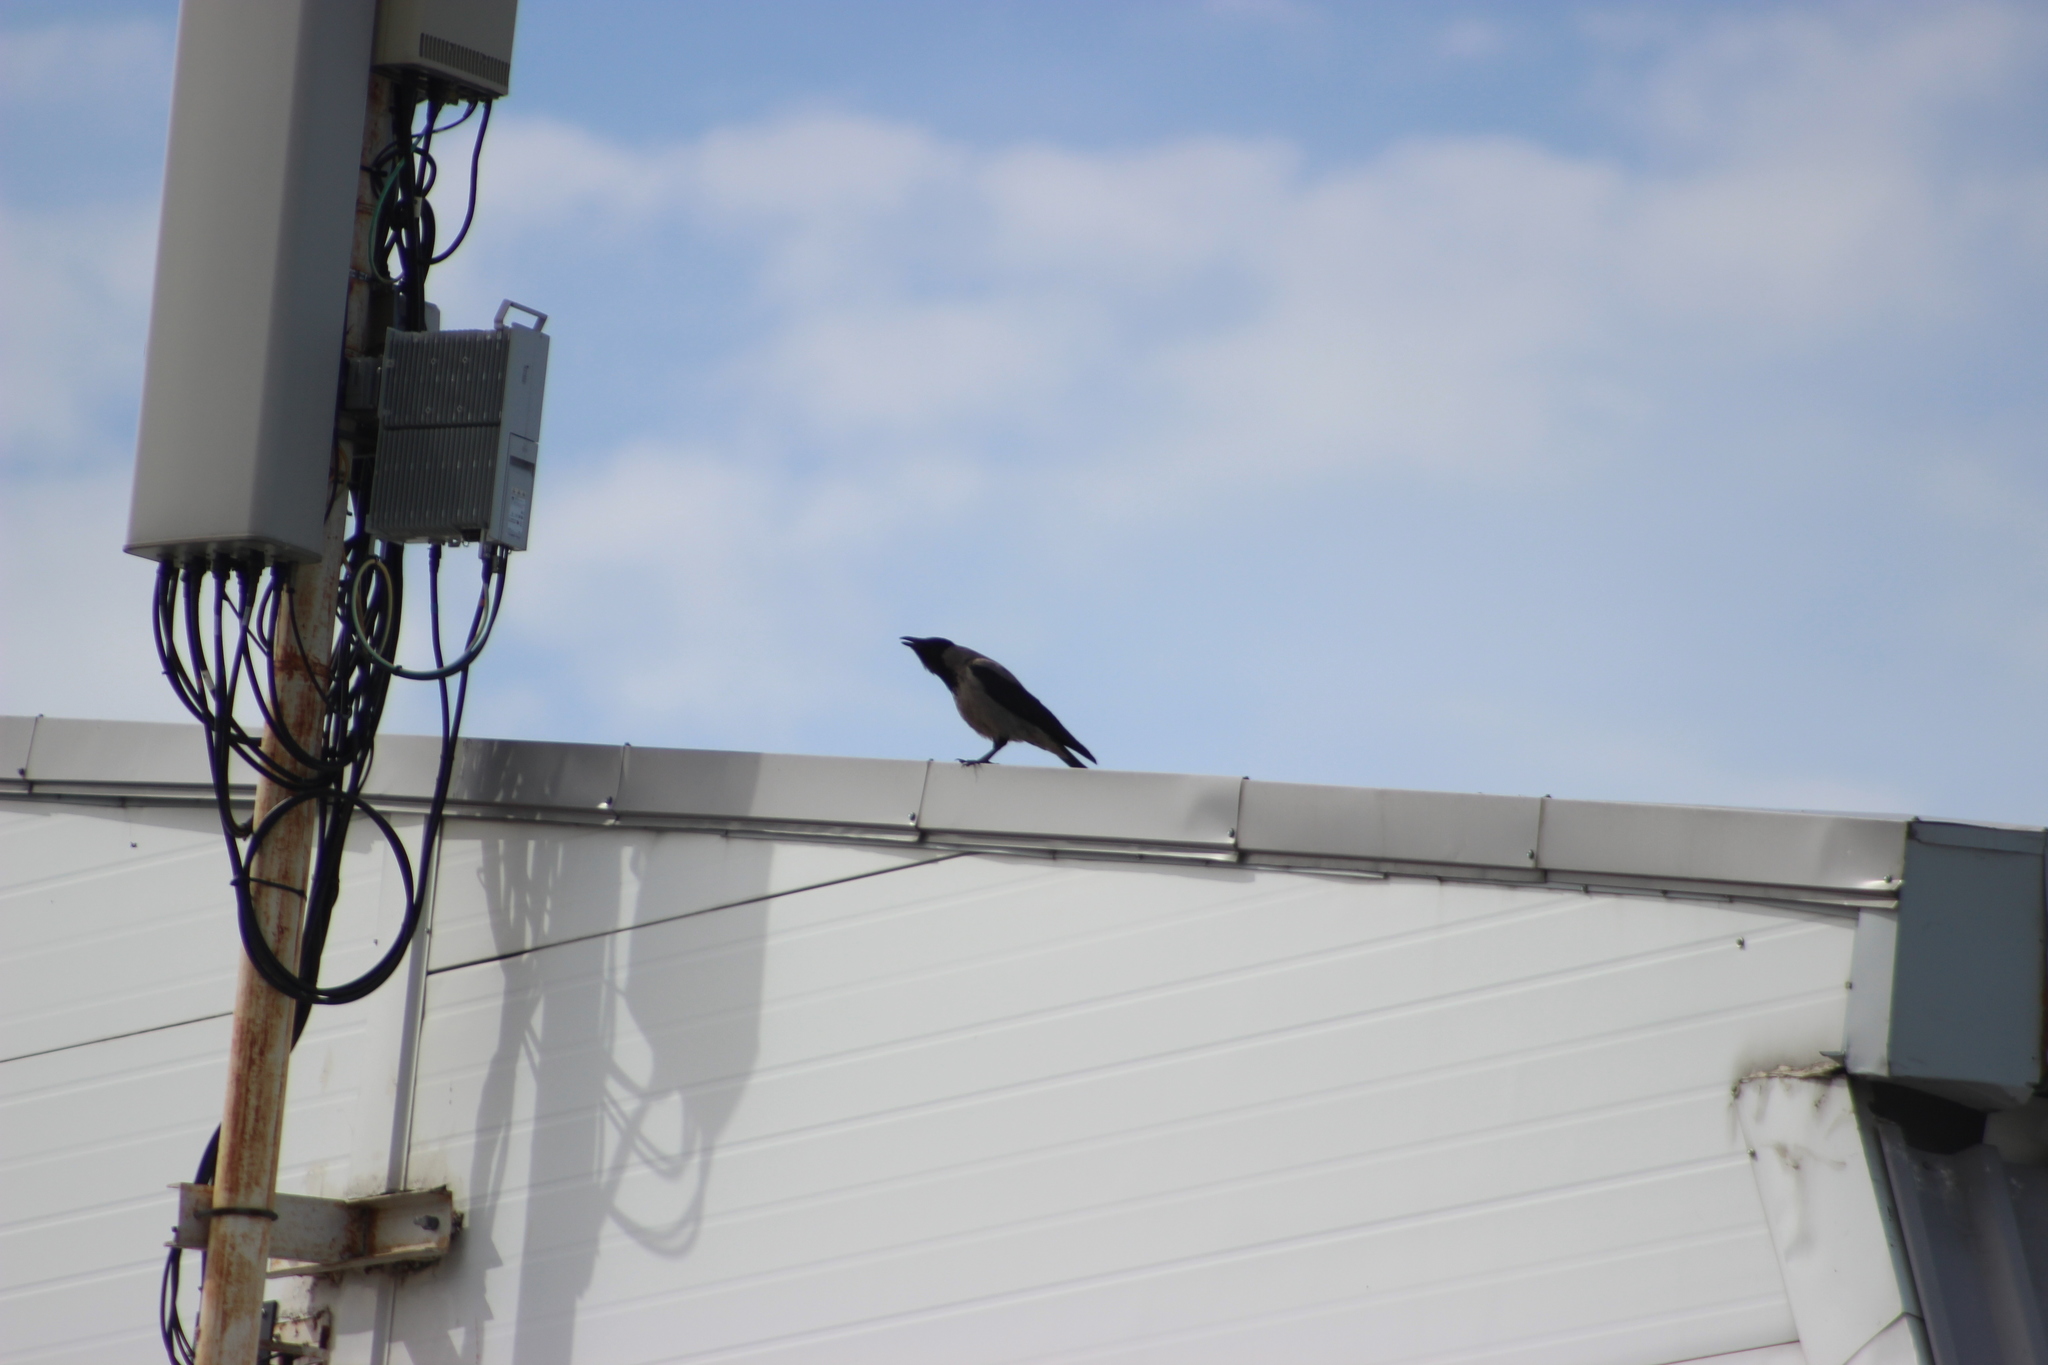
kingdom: Animalia
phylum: Chordata
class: Aves
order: Passeriformes
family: Corvidae
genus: Corvus
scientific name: Corvus cornix
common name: Hooded crow
